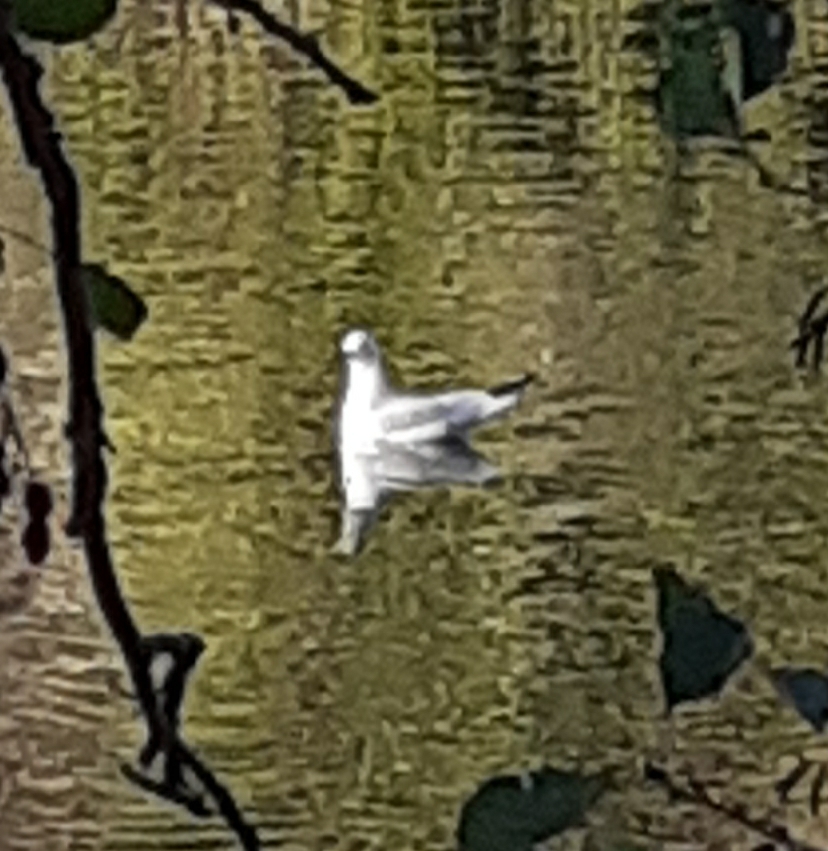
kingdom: Animalia
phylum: Chordata
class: Aves
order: Charadriiformes
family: Laridae
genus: Chroicocephalus
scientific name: Chroicocephalus ridibundus
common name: Black-headed gull
